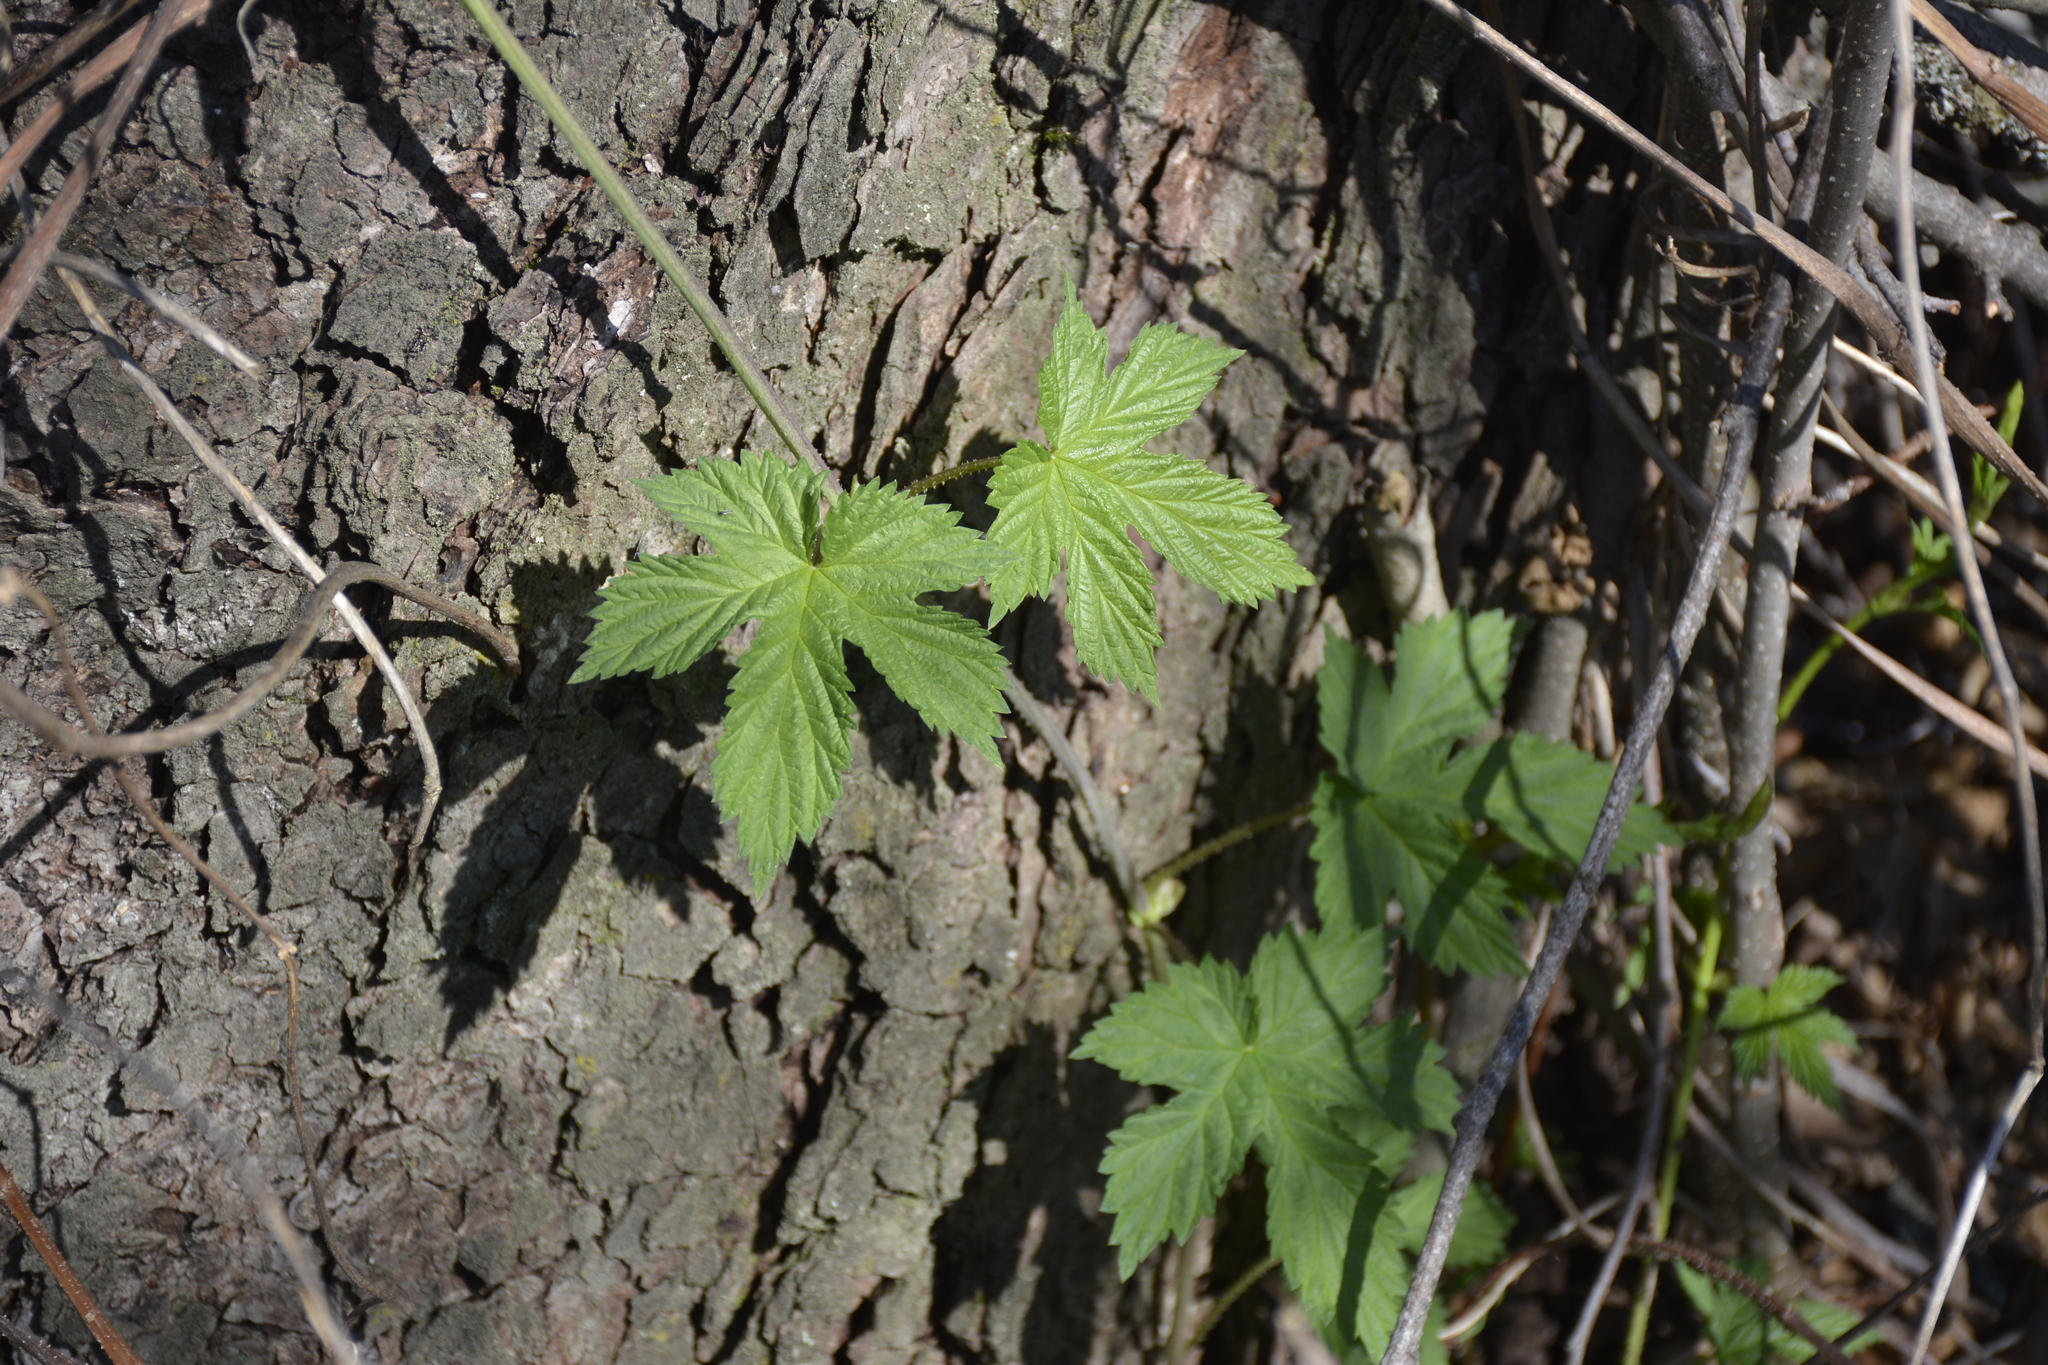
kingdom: Plantae
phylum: Tracheophyta
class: Magnoliopsida
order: Rosales
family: Cannabaceae
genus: Humulus
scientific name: Humulus lupulus
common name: Hop
